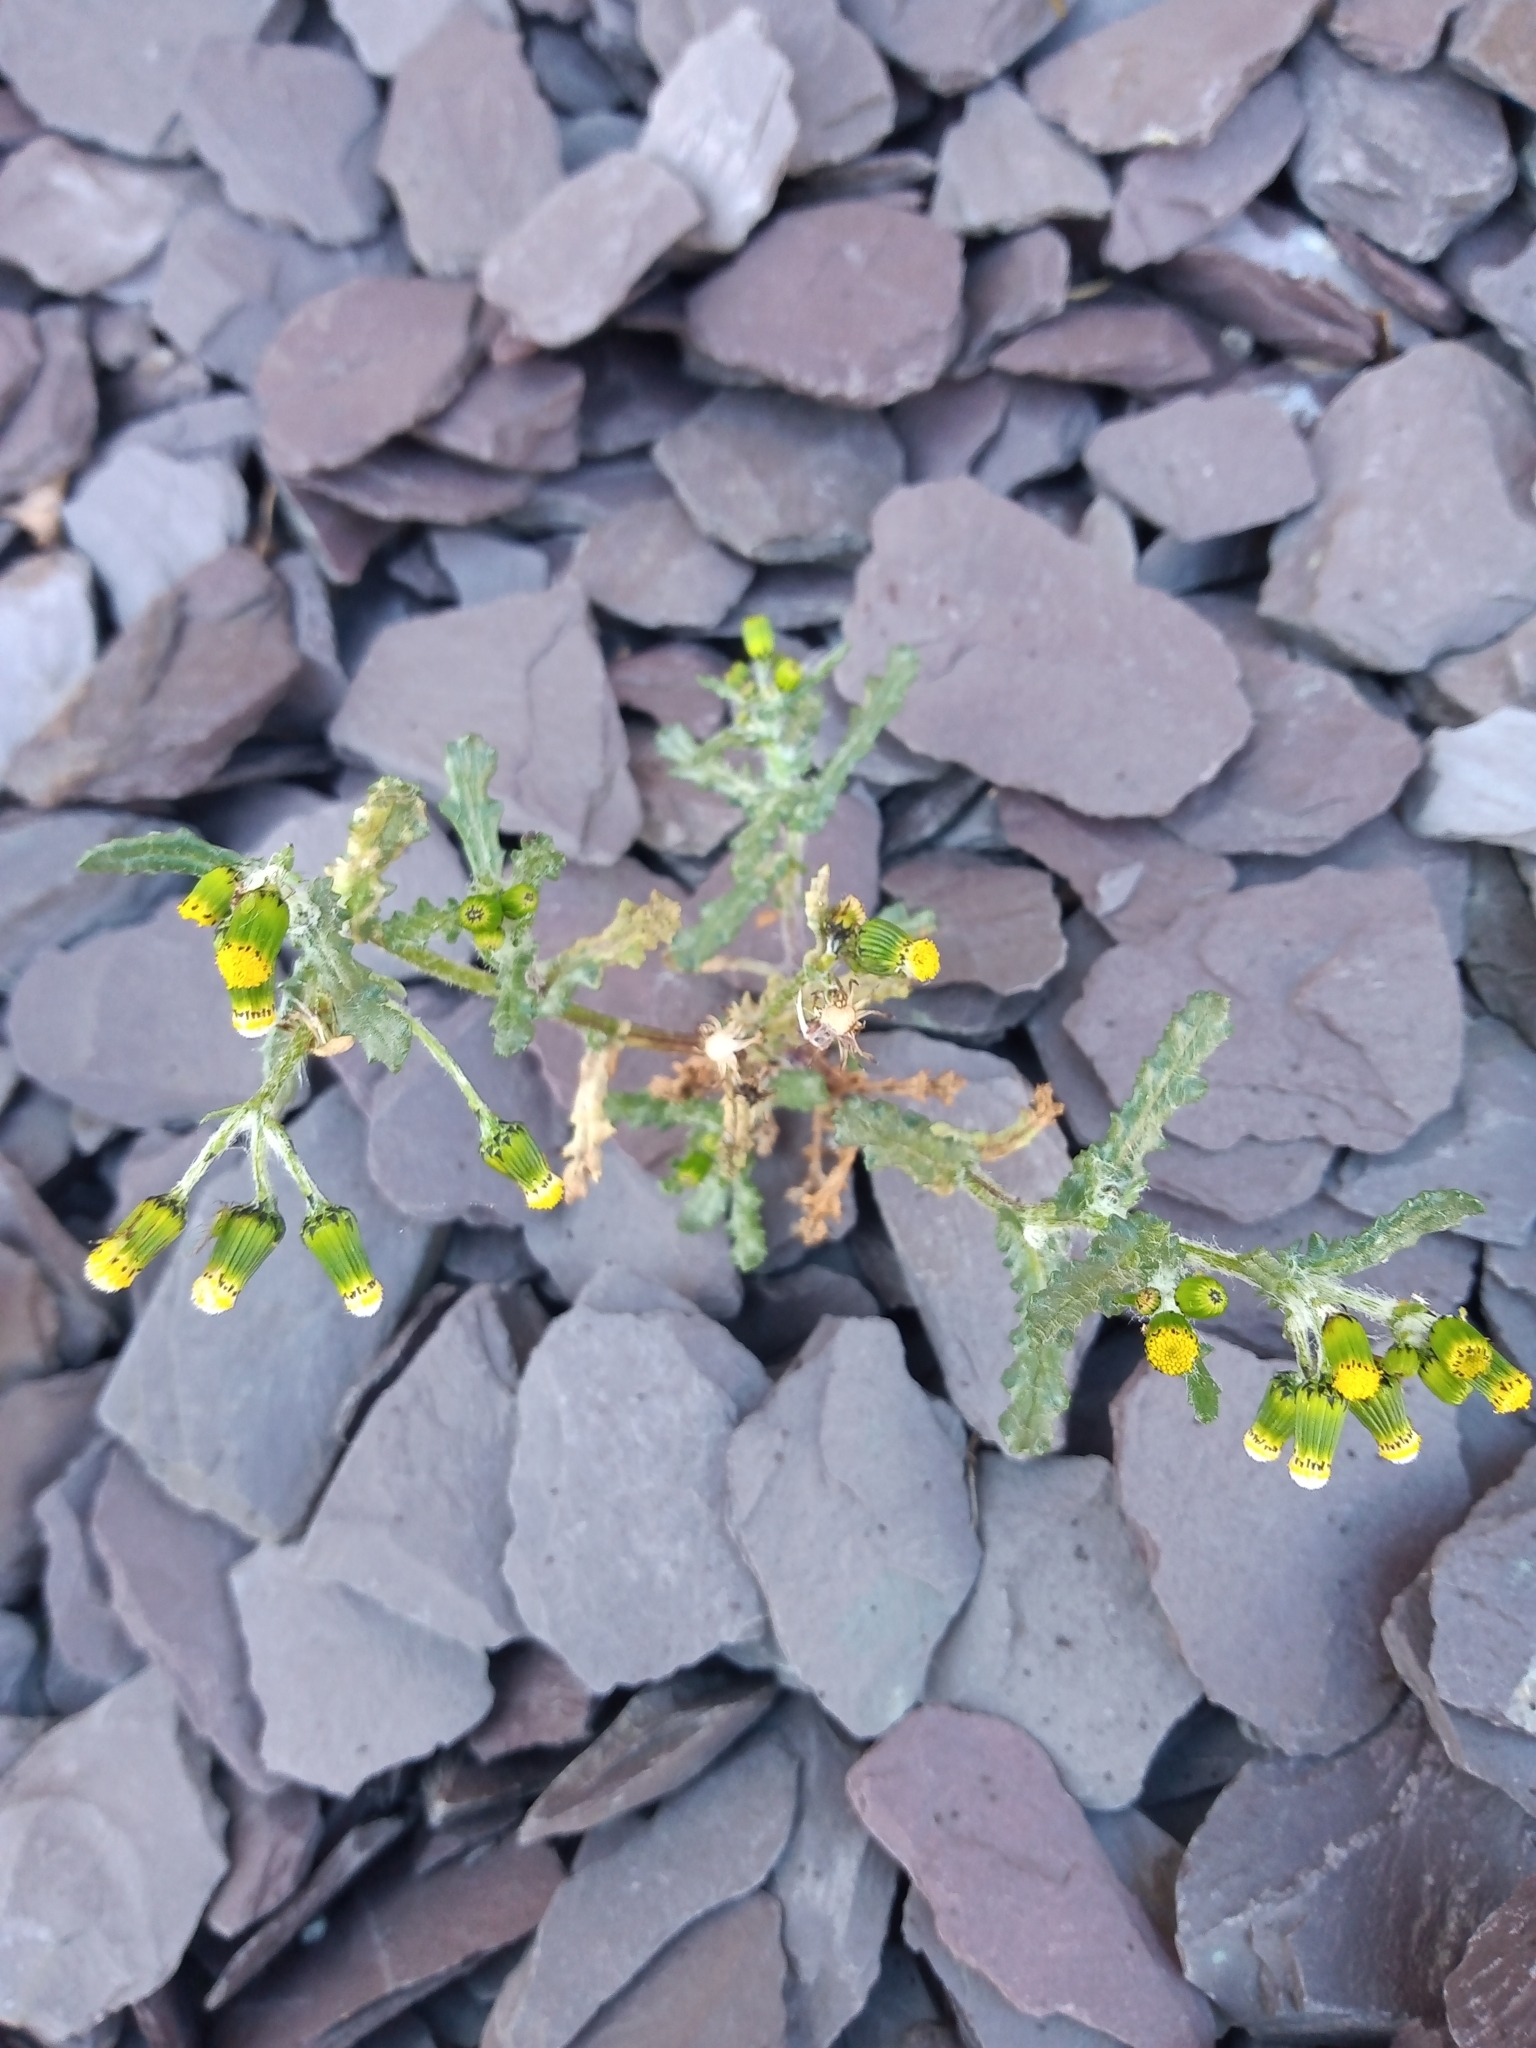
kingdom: Plantae
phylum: Tracheophyta
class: Magnoliopsida
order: Asterales
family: Asteraceae
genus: Senecio
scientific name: Senecio vulgaris
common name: Old-man-in-the-spring
